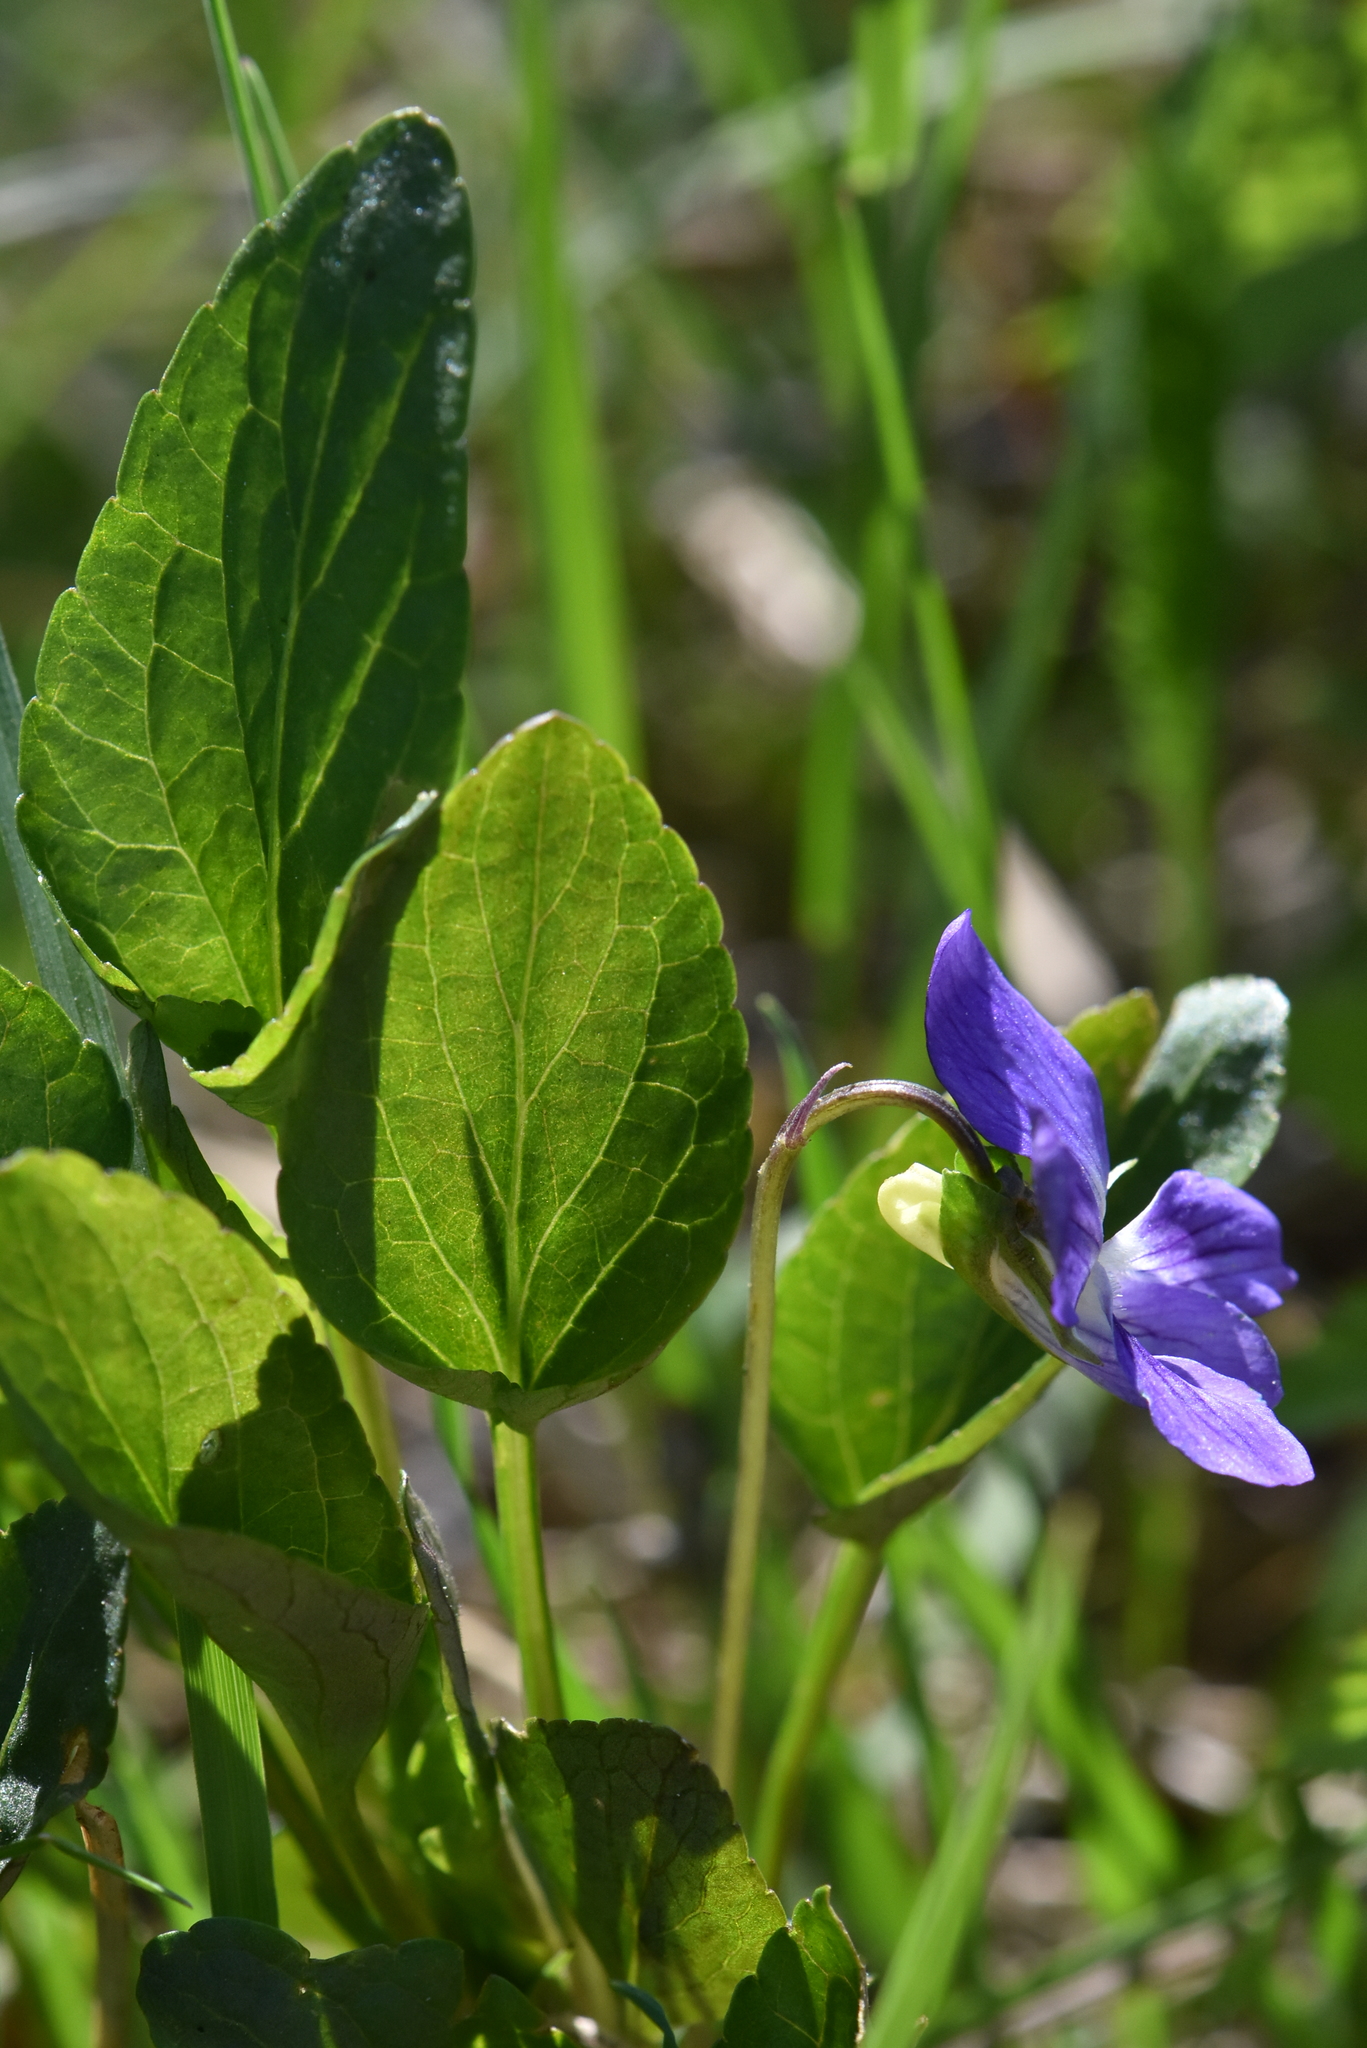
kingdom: Plantae
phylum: Tracheophyta
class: Magnoliopsida
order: Malpighiales
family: Violaceae
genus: Viola
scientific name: Viola canina
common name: Heath dog-violet
